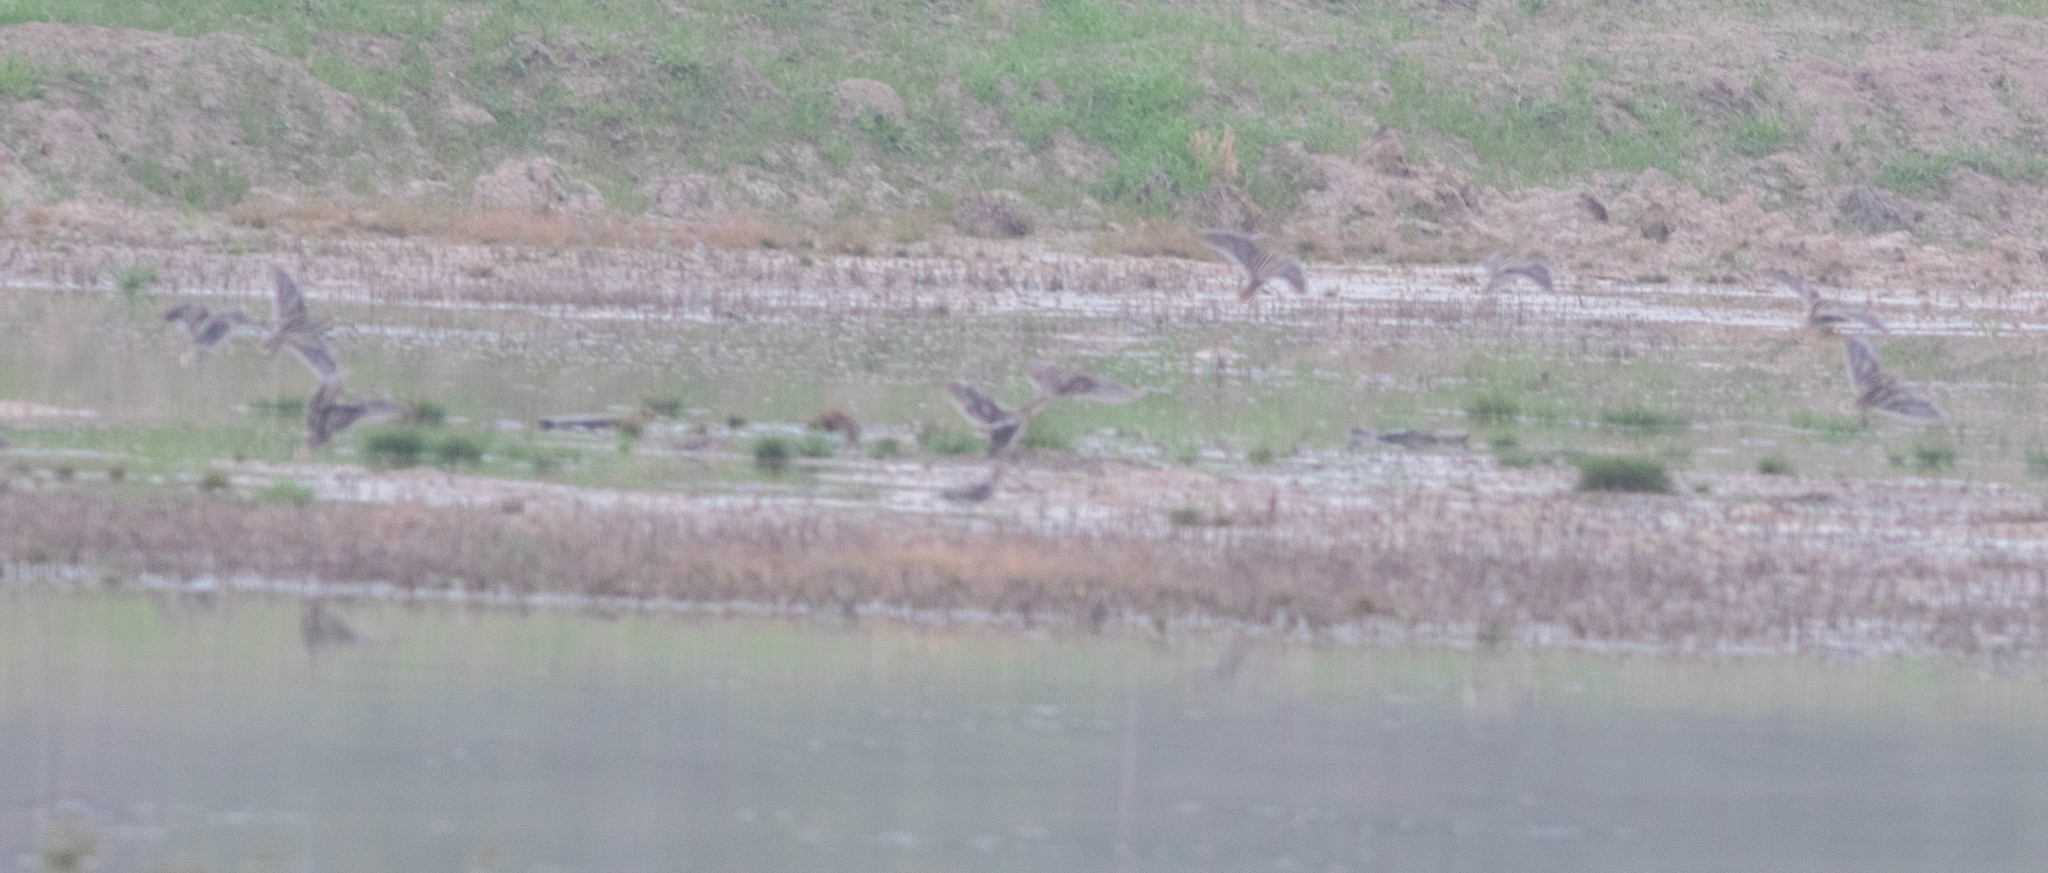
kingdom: Animalia
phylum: Chordata
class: Aves
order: Charadriiformes
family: Scolopacidae
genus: Gallinago
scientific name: Gallinago delicata
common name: Wilson's snipe
